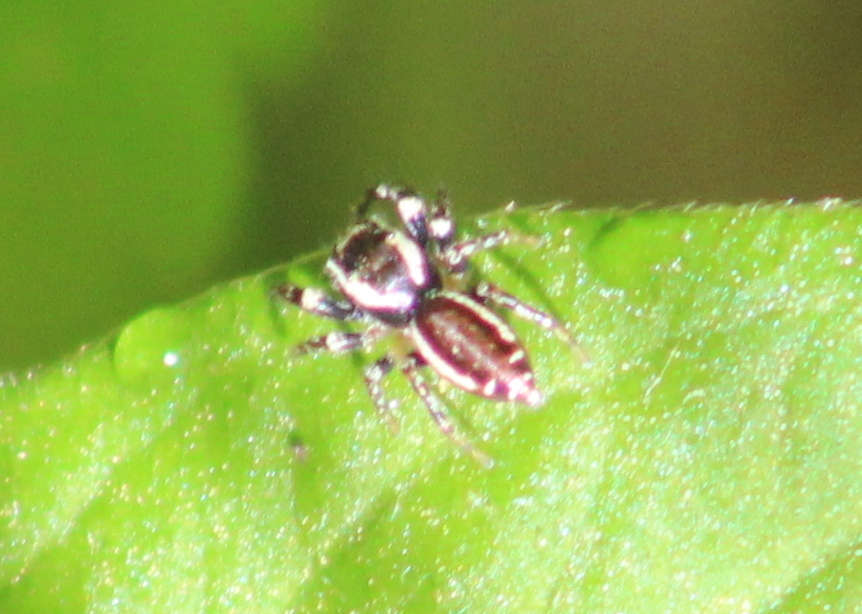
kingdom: Animalia
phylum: Arthropoda
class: Arachnida
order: Araneae
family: Salticidae
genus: Pelegrina
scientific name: Pelegrina proterva
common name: Common white-cheeked jumping spider
